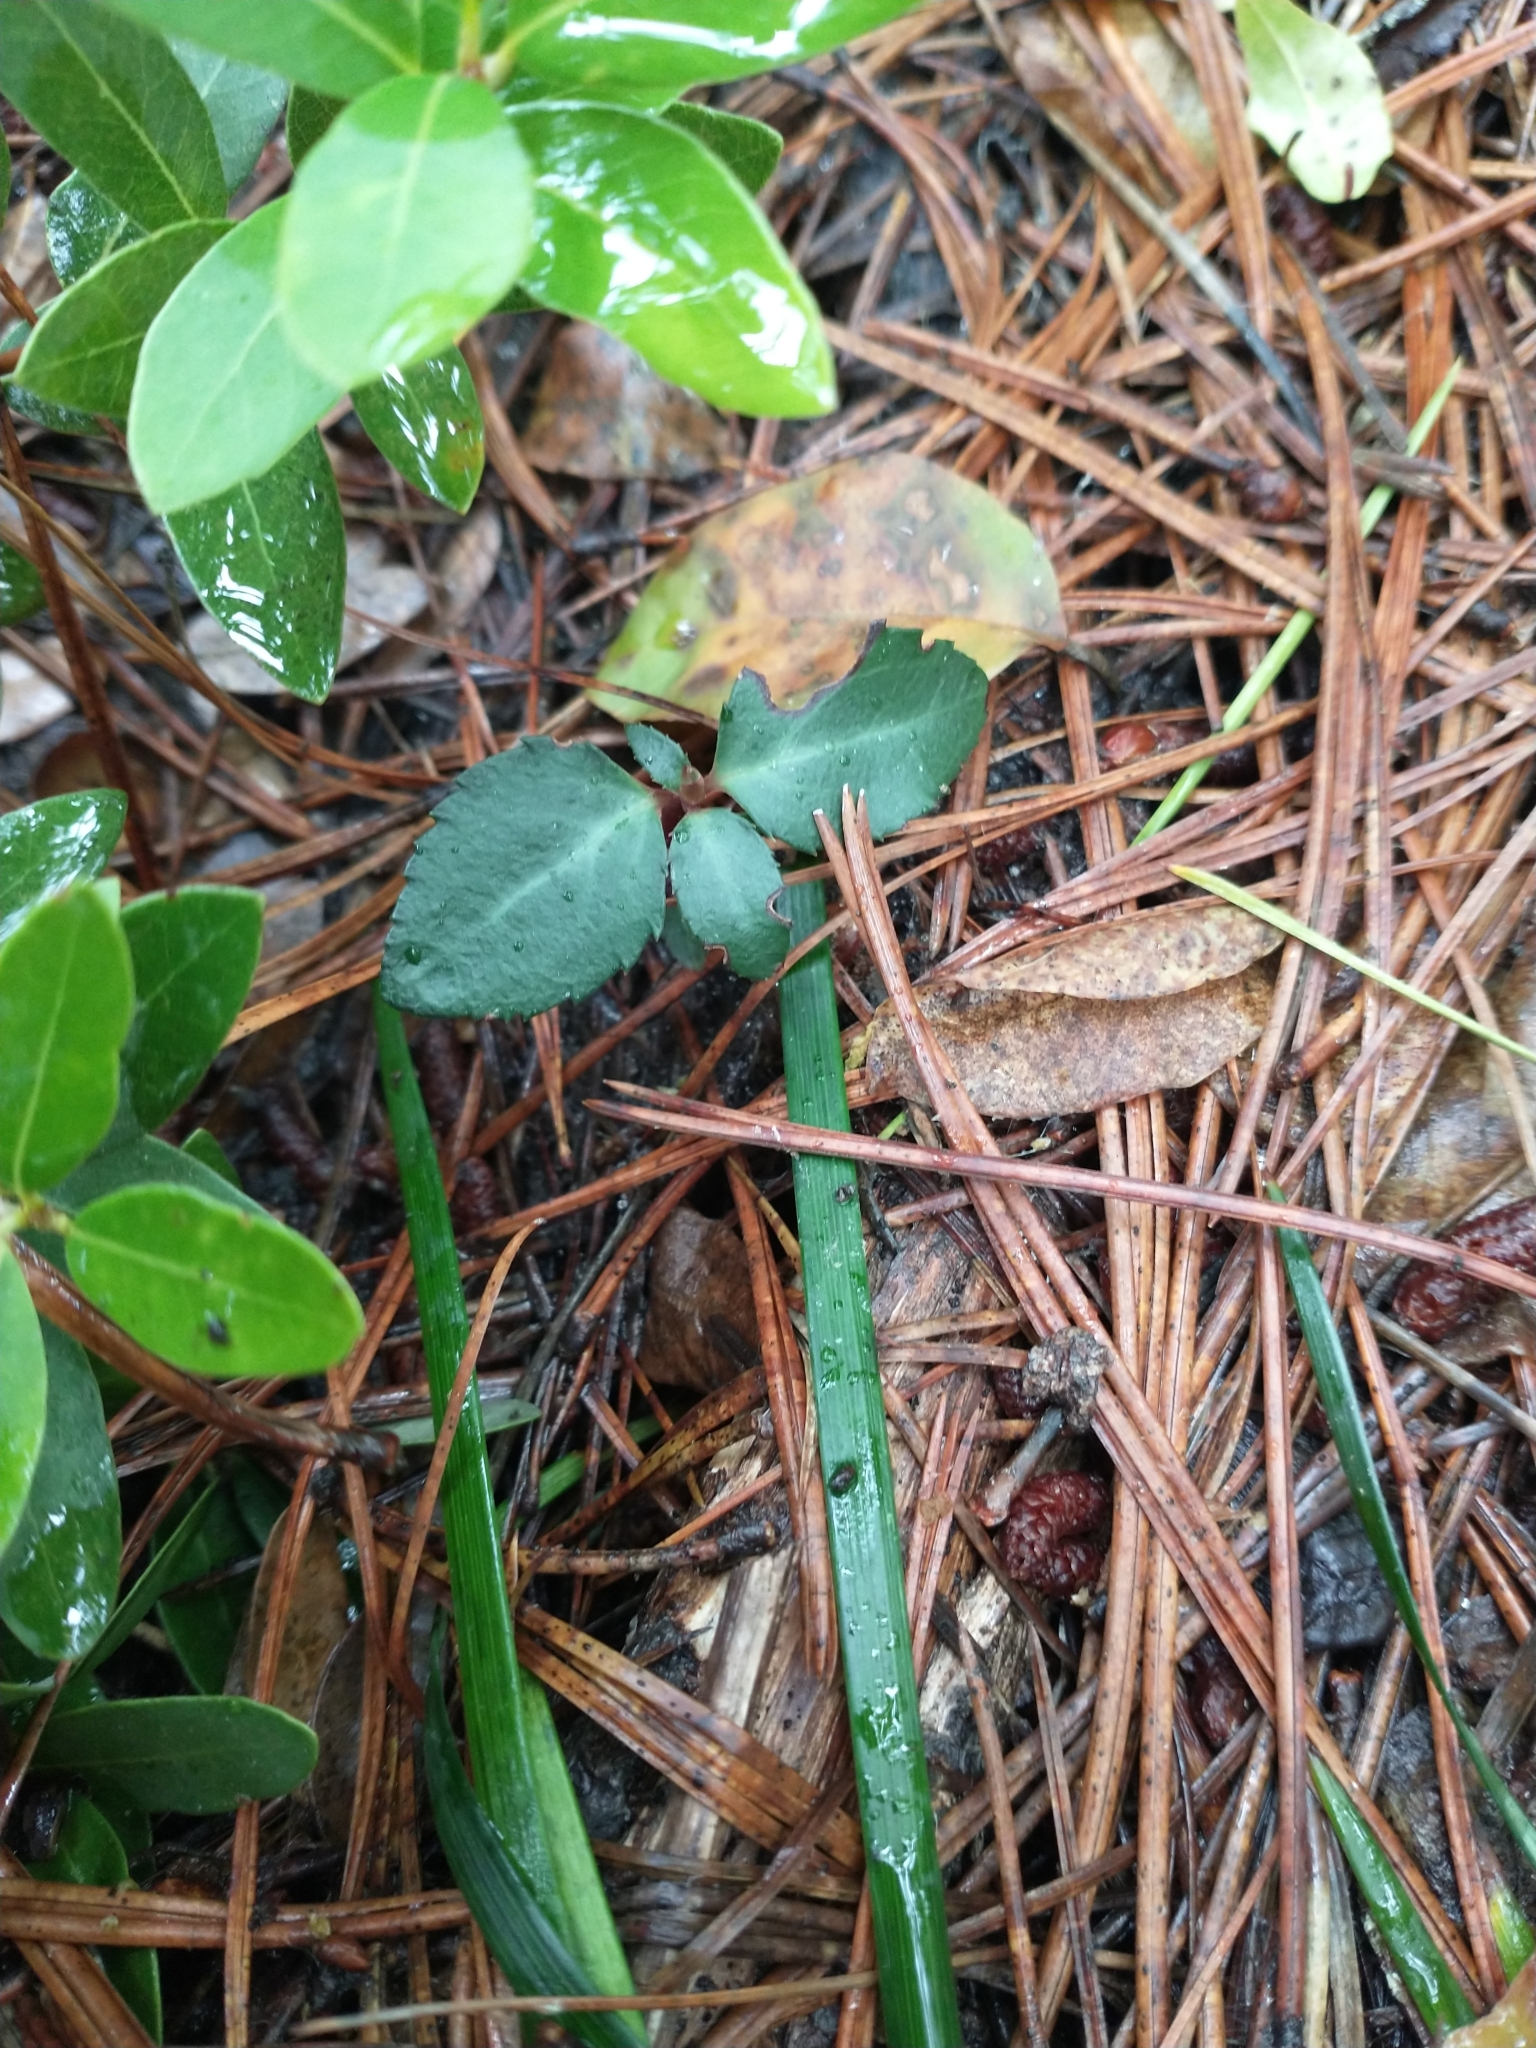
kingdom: Plantae
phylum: Tracheophyta
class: Magnoliopsida
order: Ericales
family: Ericaceae
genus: Chimaphila
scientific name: Chimaphila menziesii
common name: Menzies' pipsissewa
